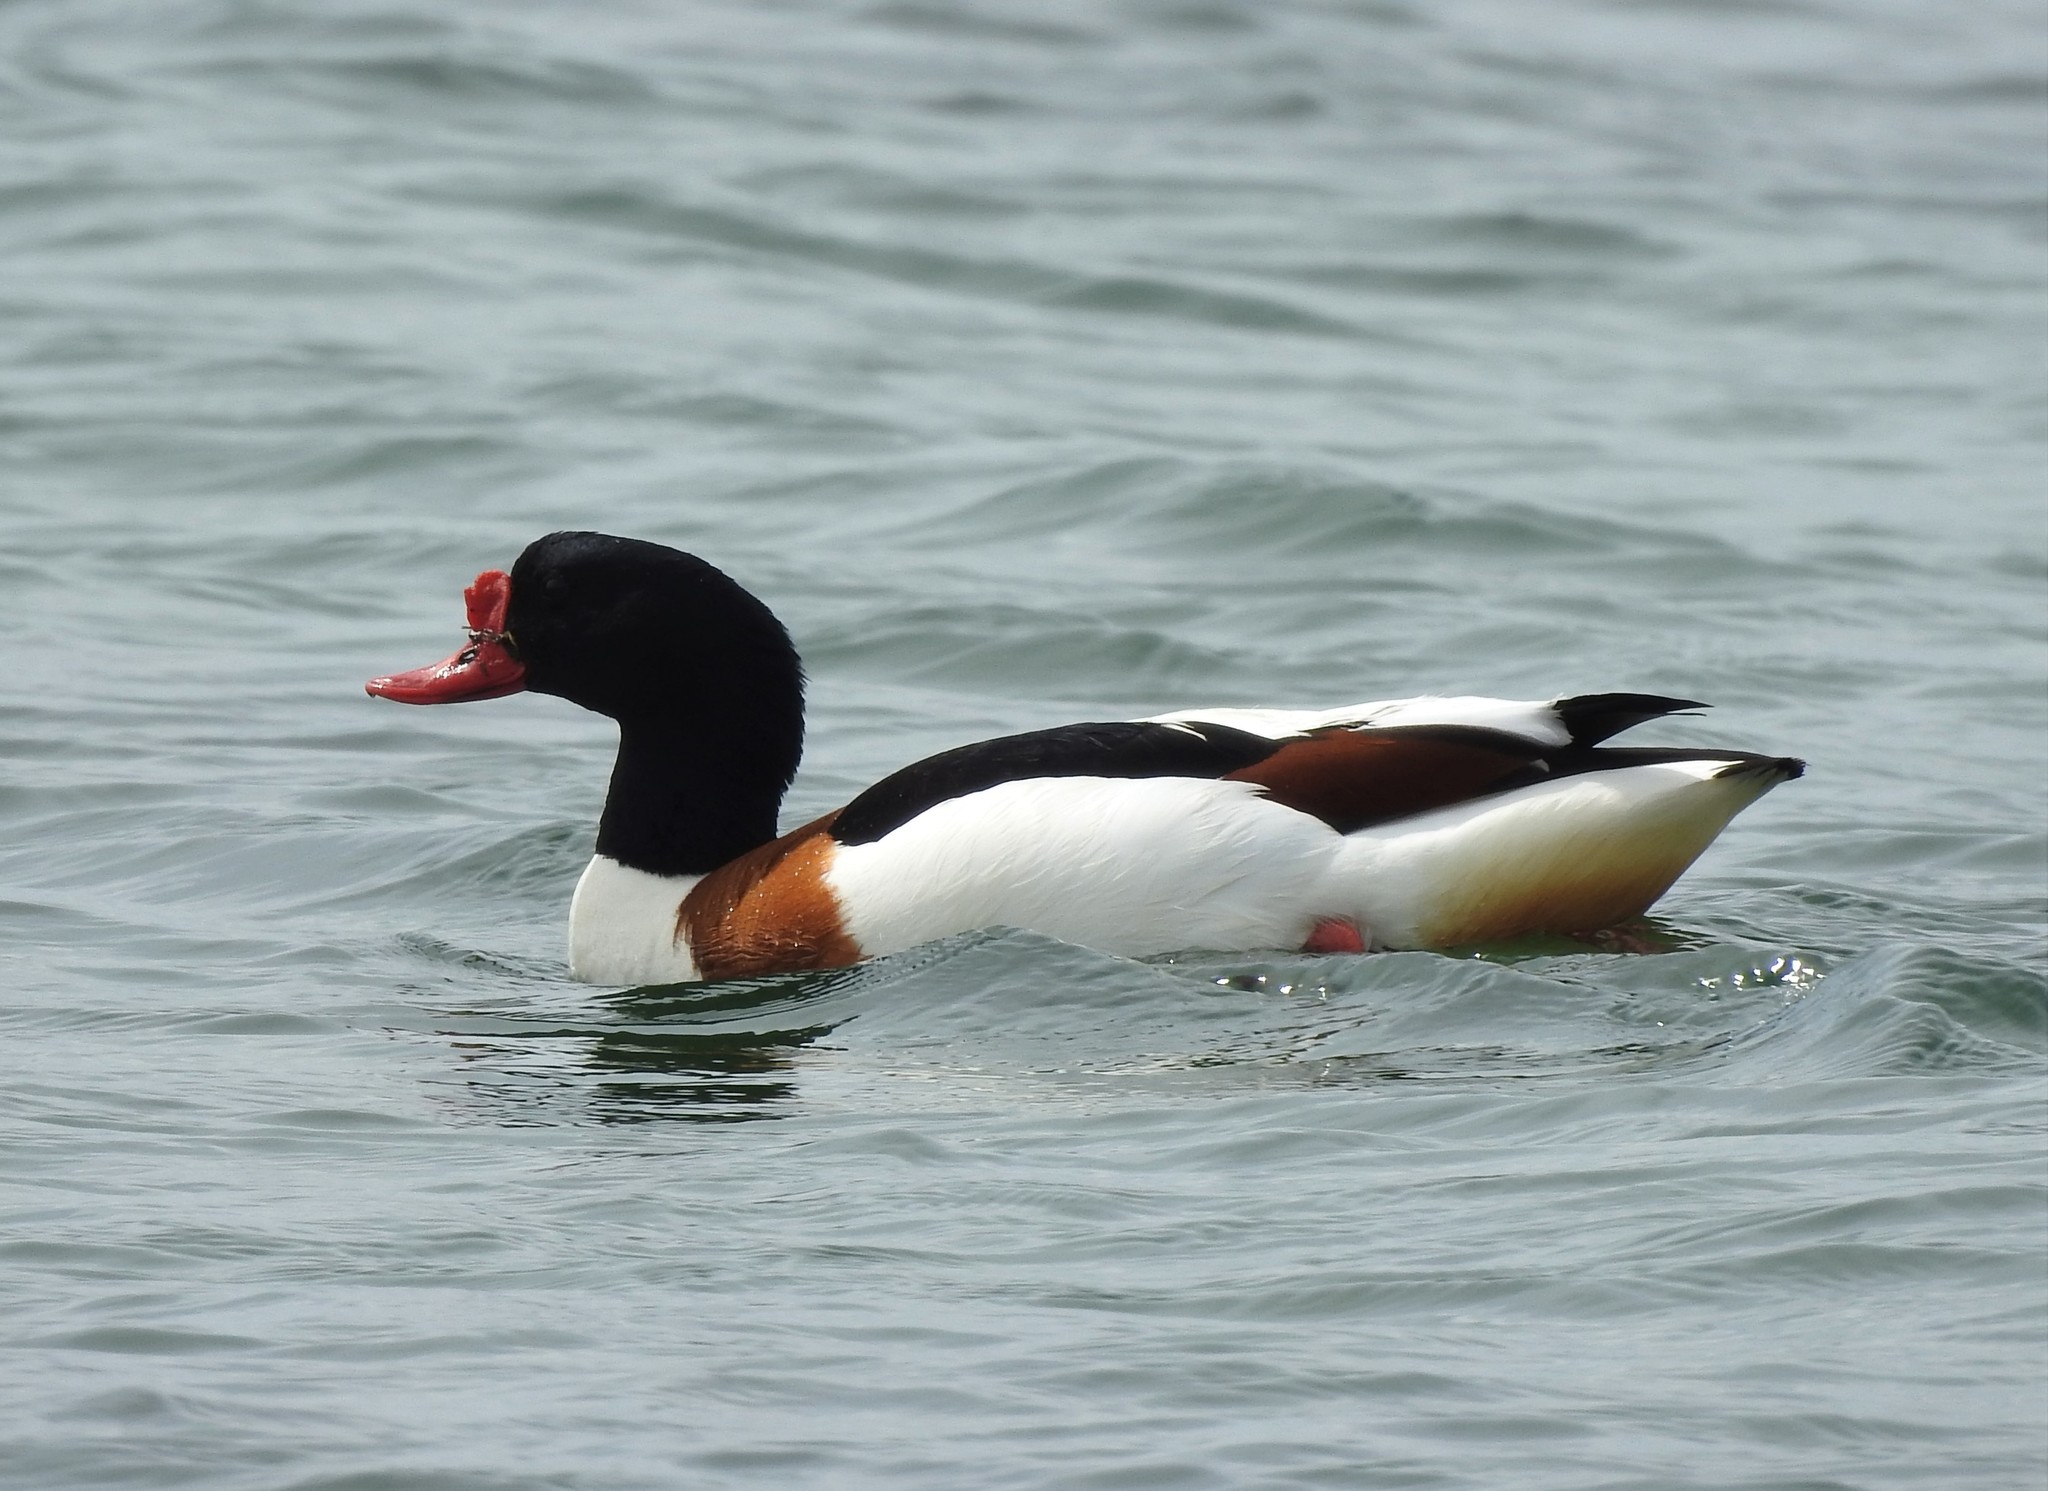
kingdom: Animalia
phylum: Chordata
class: Aves
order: Anseriformes
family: Anatidae
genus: Tadorna
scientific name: Tadorna tadorna
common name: Common shelduck
